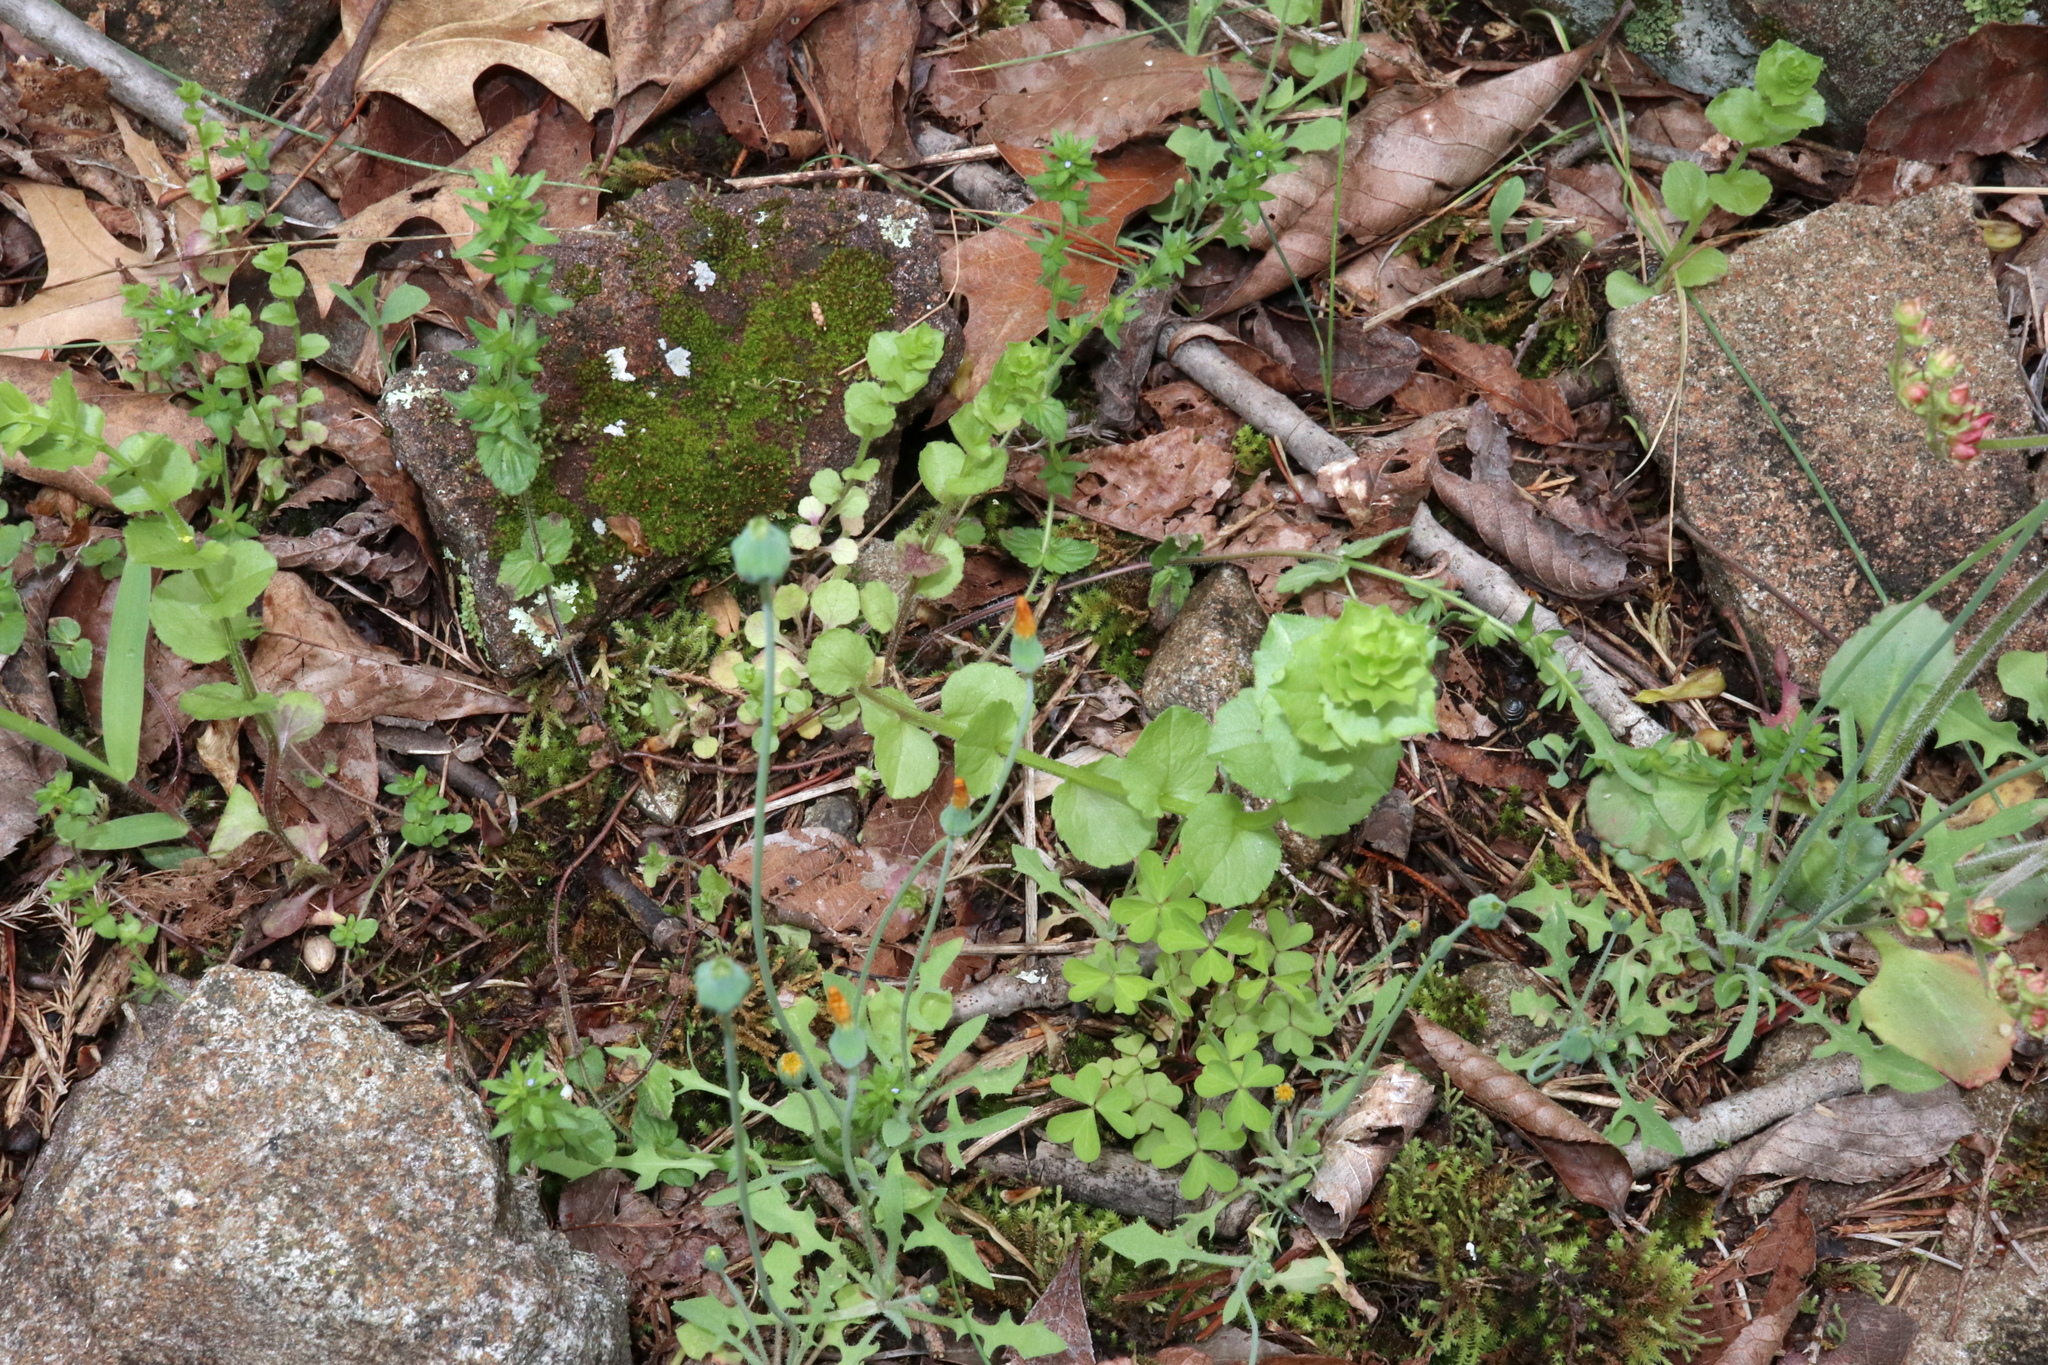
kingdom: Plantae
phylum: Tracheophyta
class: Magnoliopsida
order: Asterales
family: Campanulaceae
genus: Triodanis
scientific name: Triodanis perfoliata
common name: Clasping venus' looking-glass
